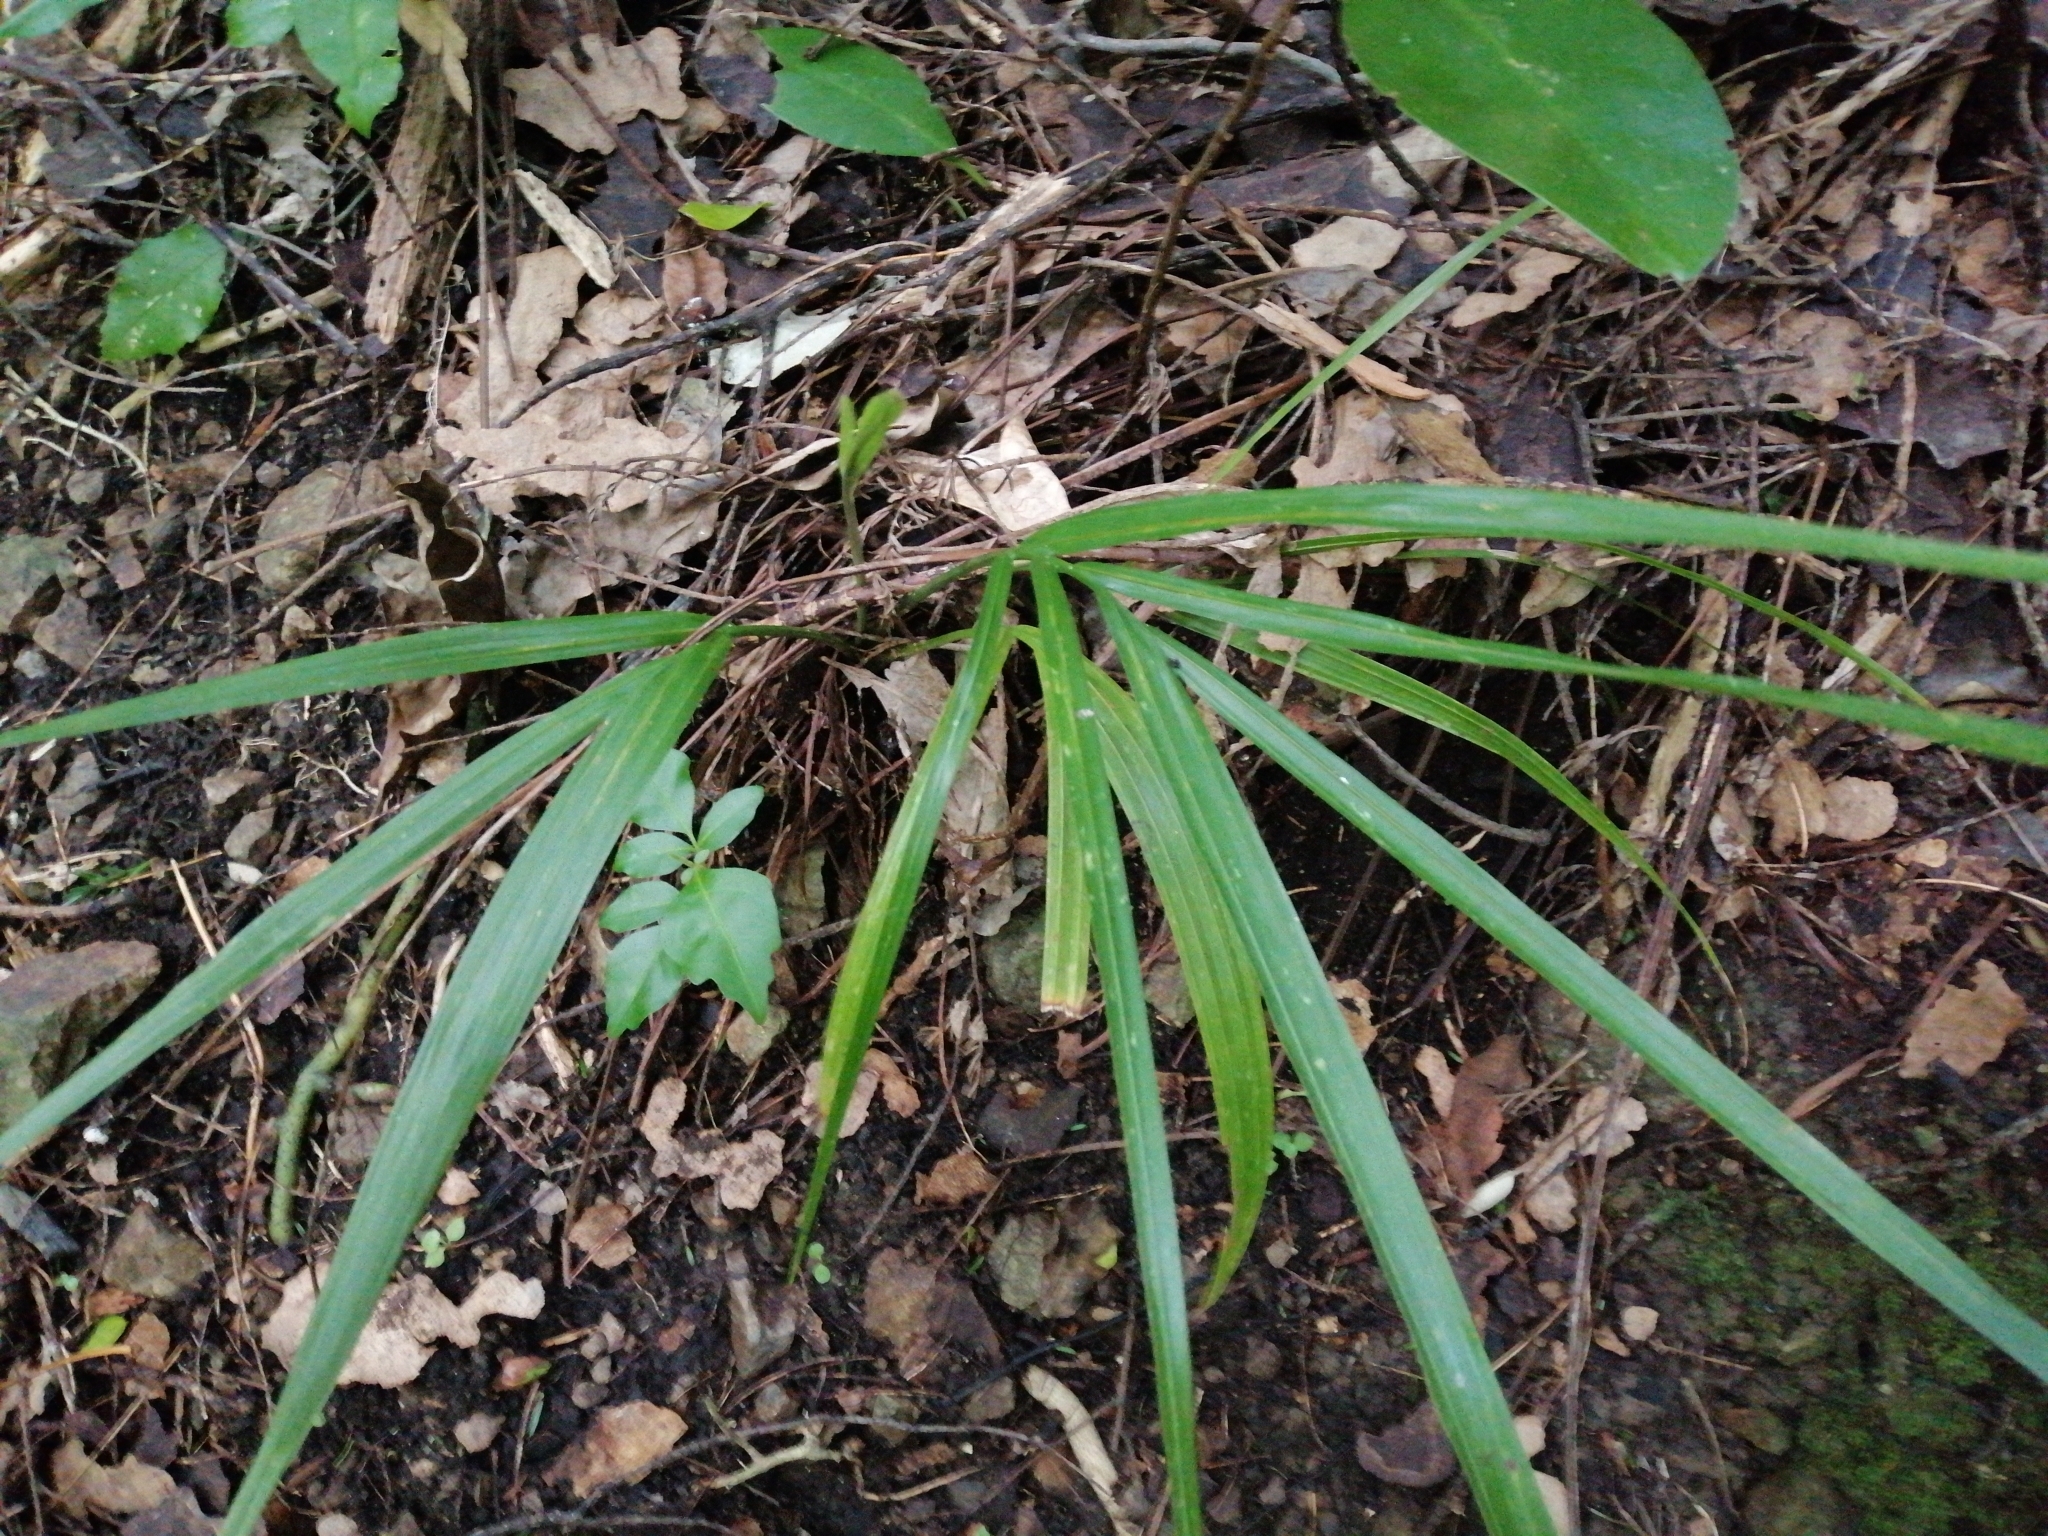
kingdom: Plantae
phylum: Tracheophyta
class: Liliopsida
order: Arecales
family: Arecaceae
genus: Rhopalostylis
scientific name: Rhopalostylis sapida
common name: Feather-duster palm
